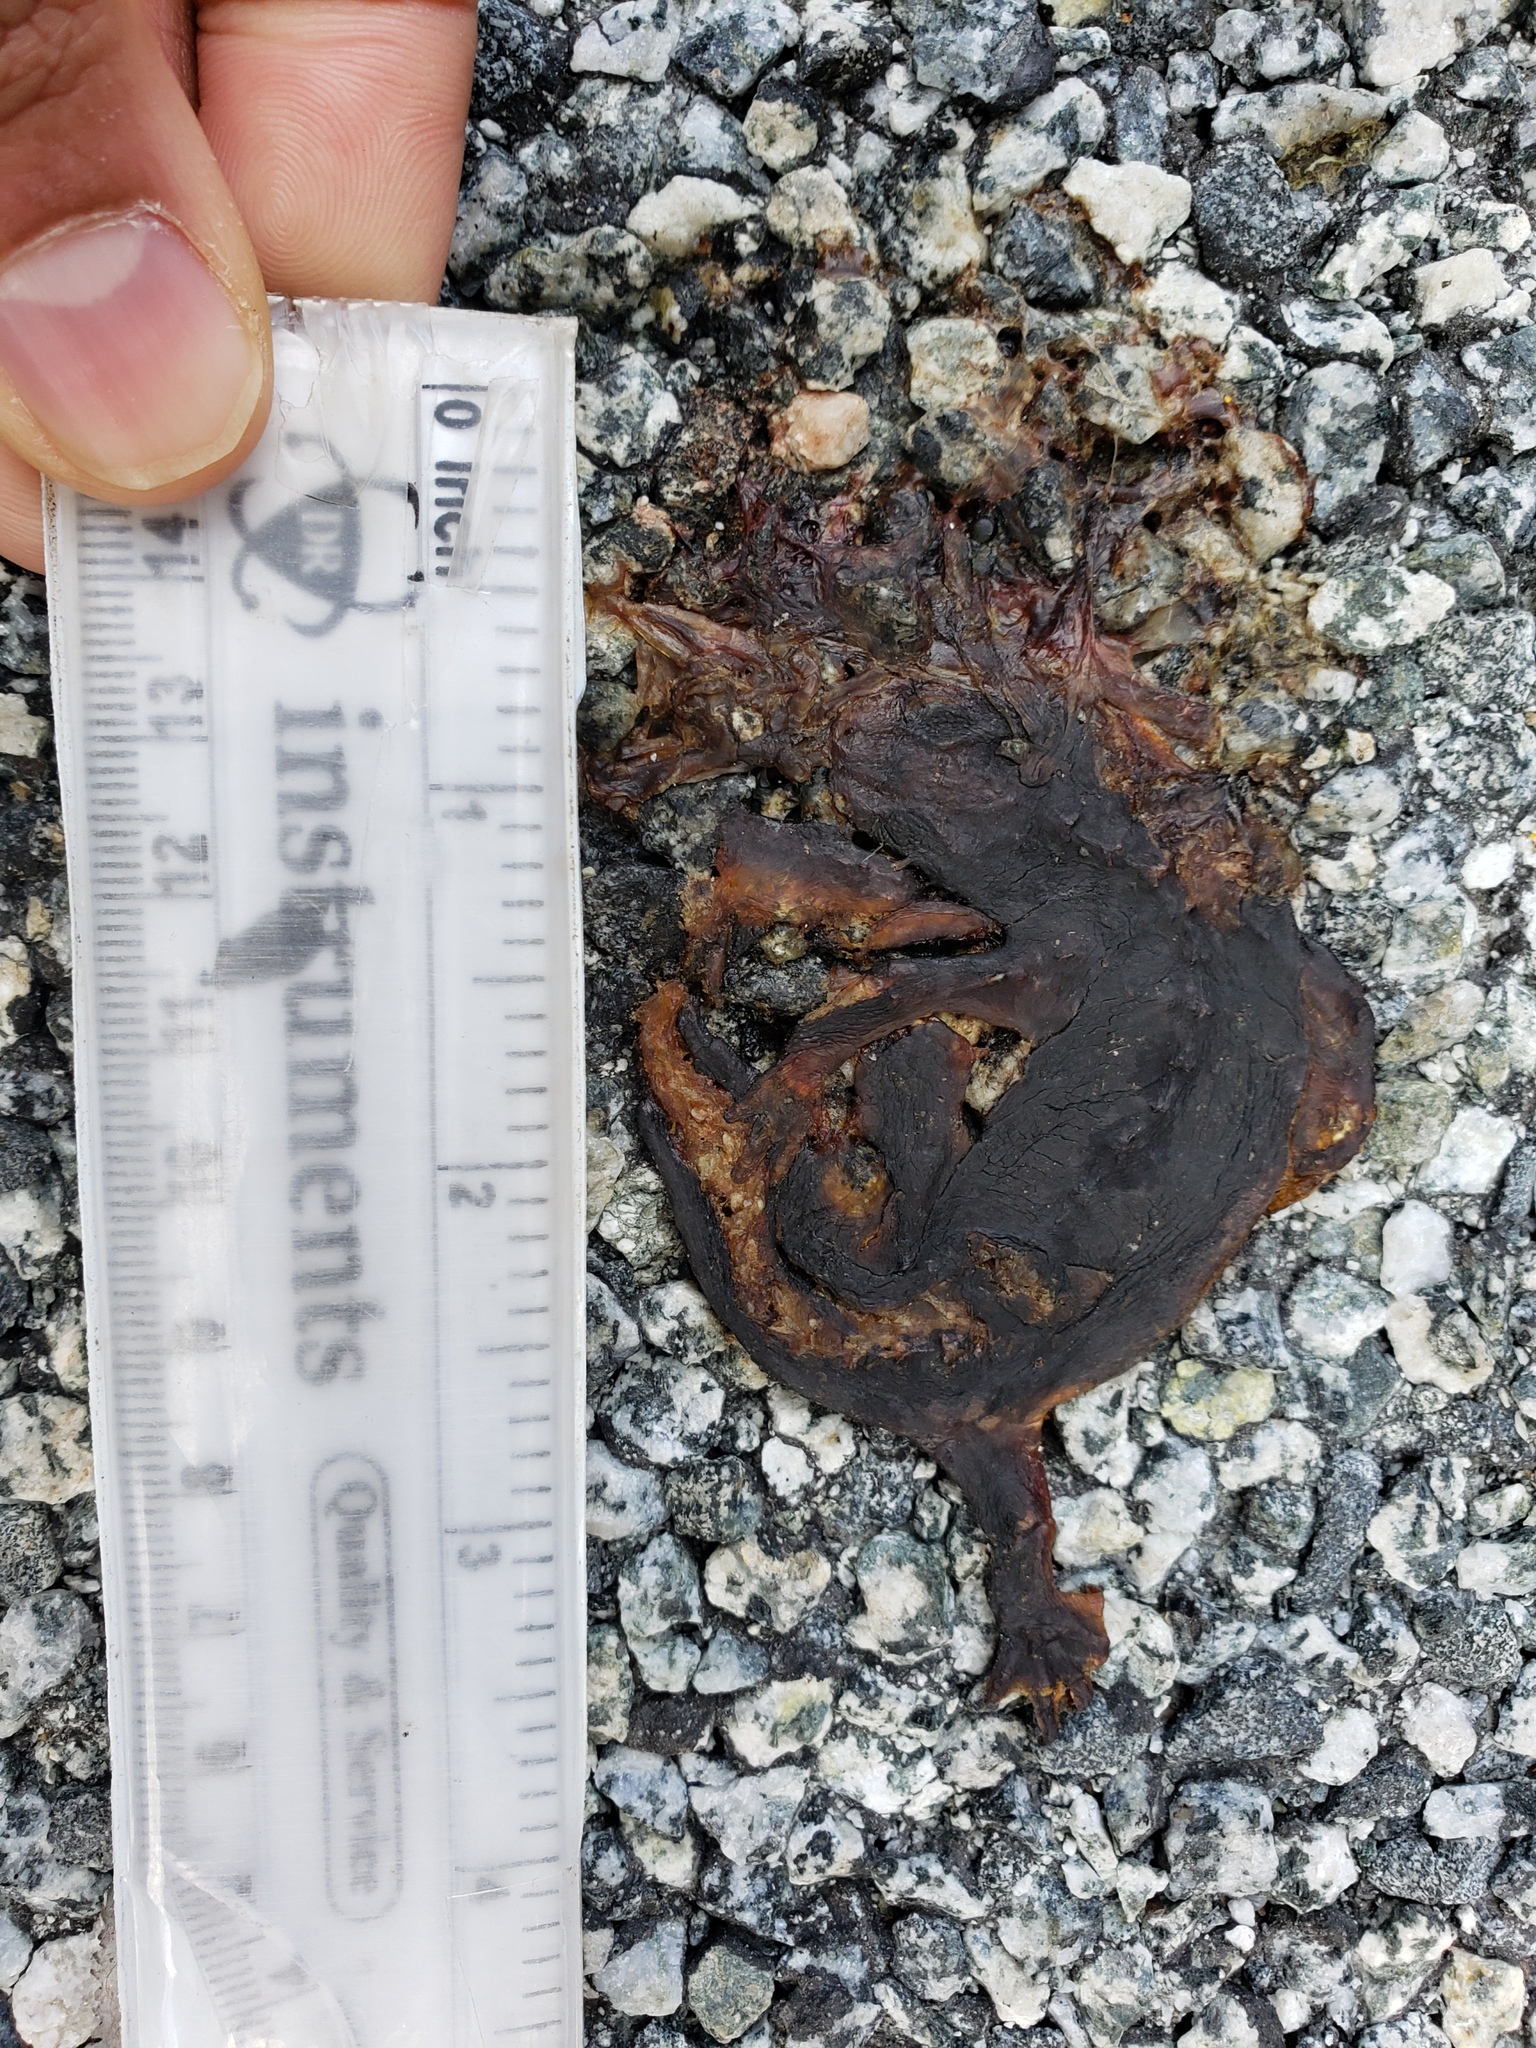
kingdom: Animalia
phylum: Chordata
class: Amphibia
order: Caudata
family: Salamandridae
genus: Taricha
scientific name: Taricha
